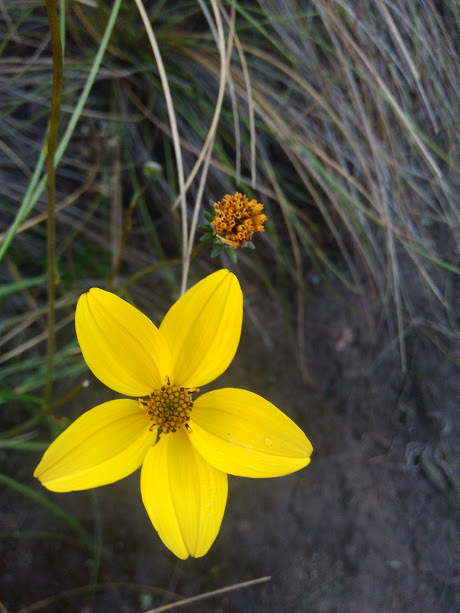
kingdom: Plantae
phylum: Tracheophyta
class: Magnoliopsida
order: Asterales
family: Asteraceae
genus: Bidens
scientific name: Bidens andicola
